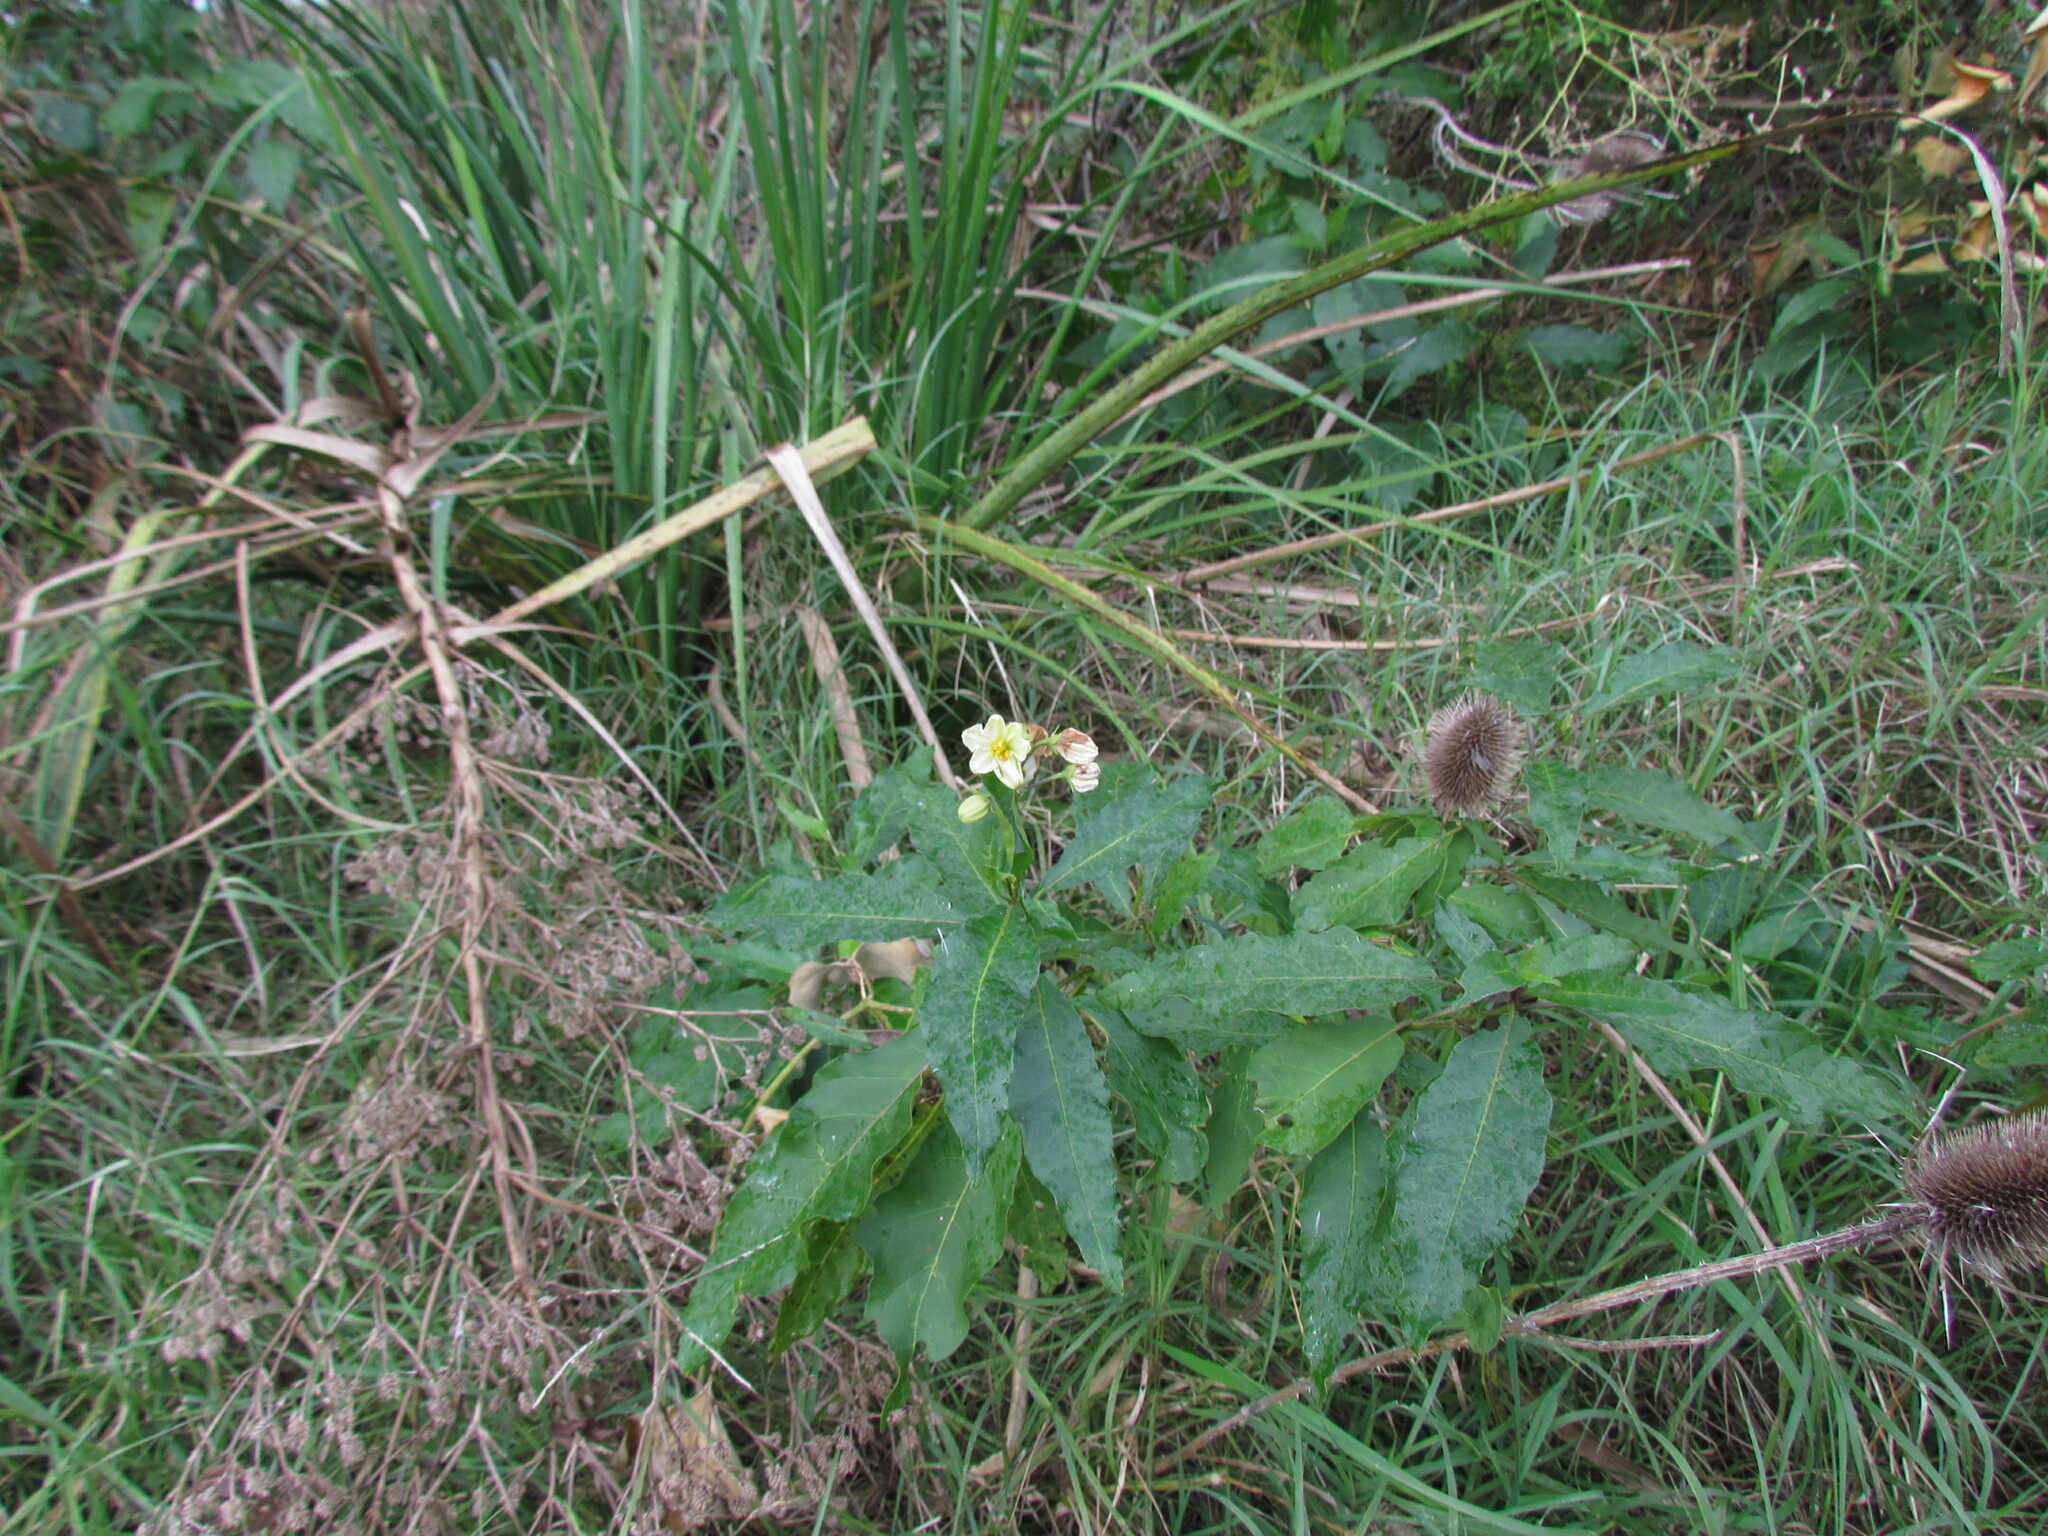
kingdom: Plantae
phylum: Tracheophyta
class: Magnoliopsida
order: Solanales
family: Solanaceae
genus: Solanum
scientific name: Solanum bonariense
